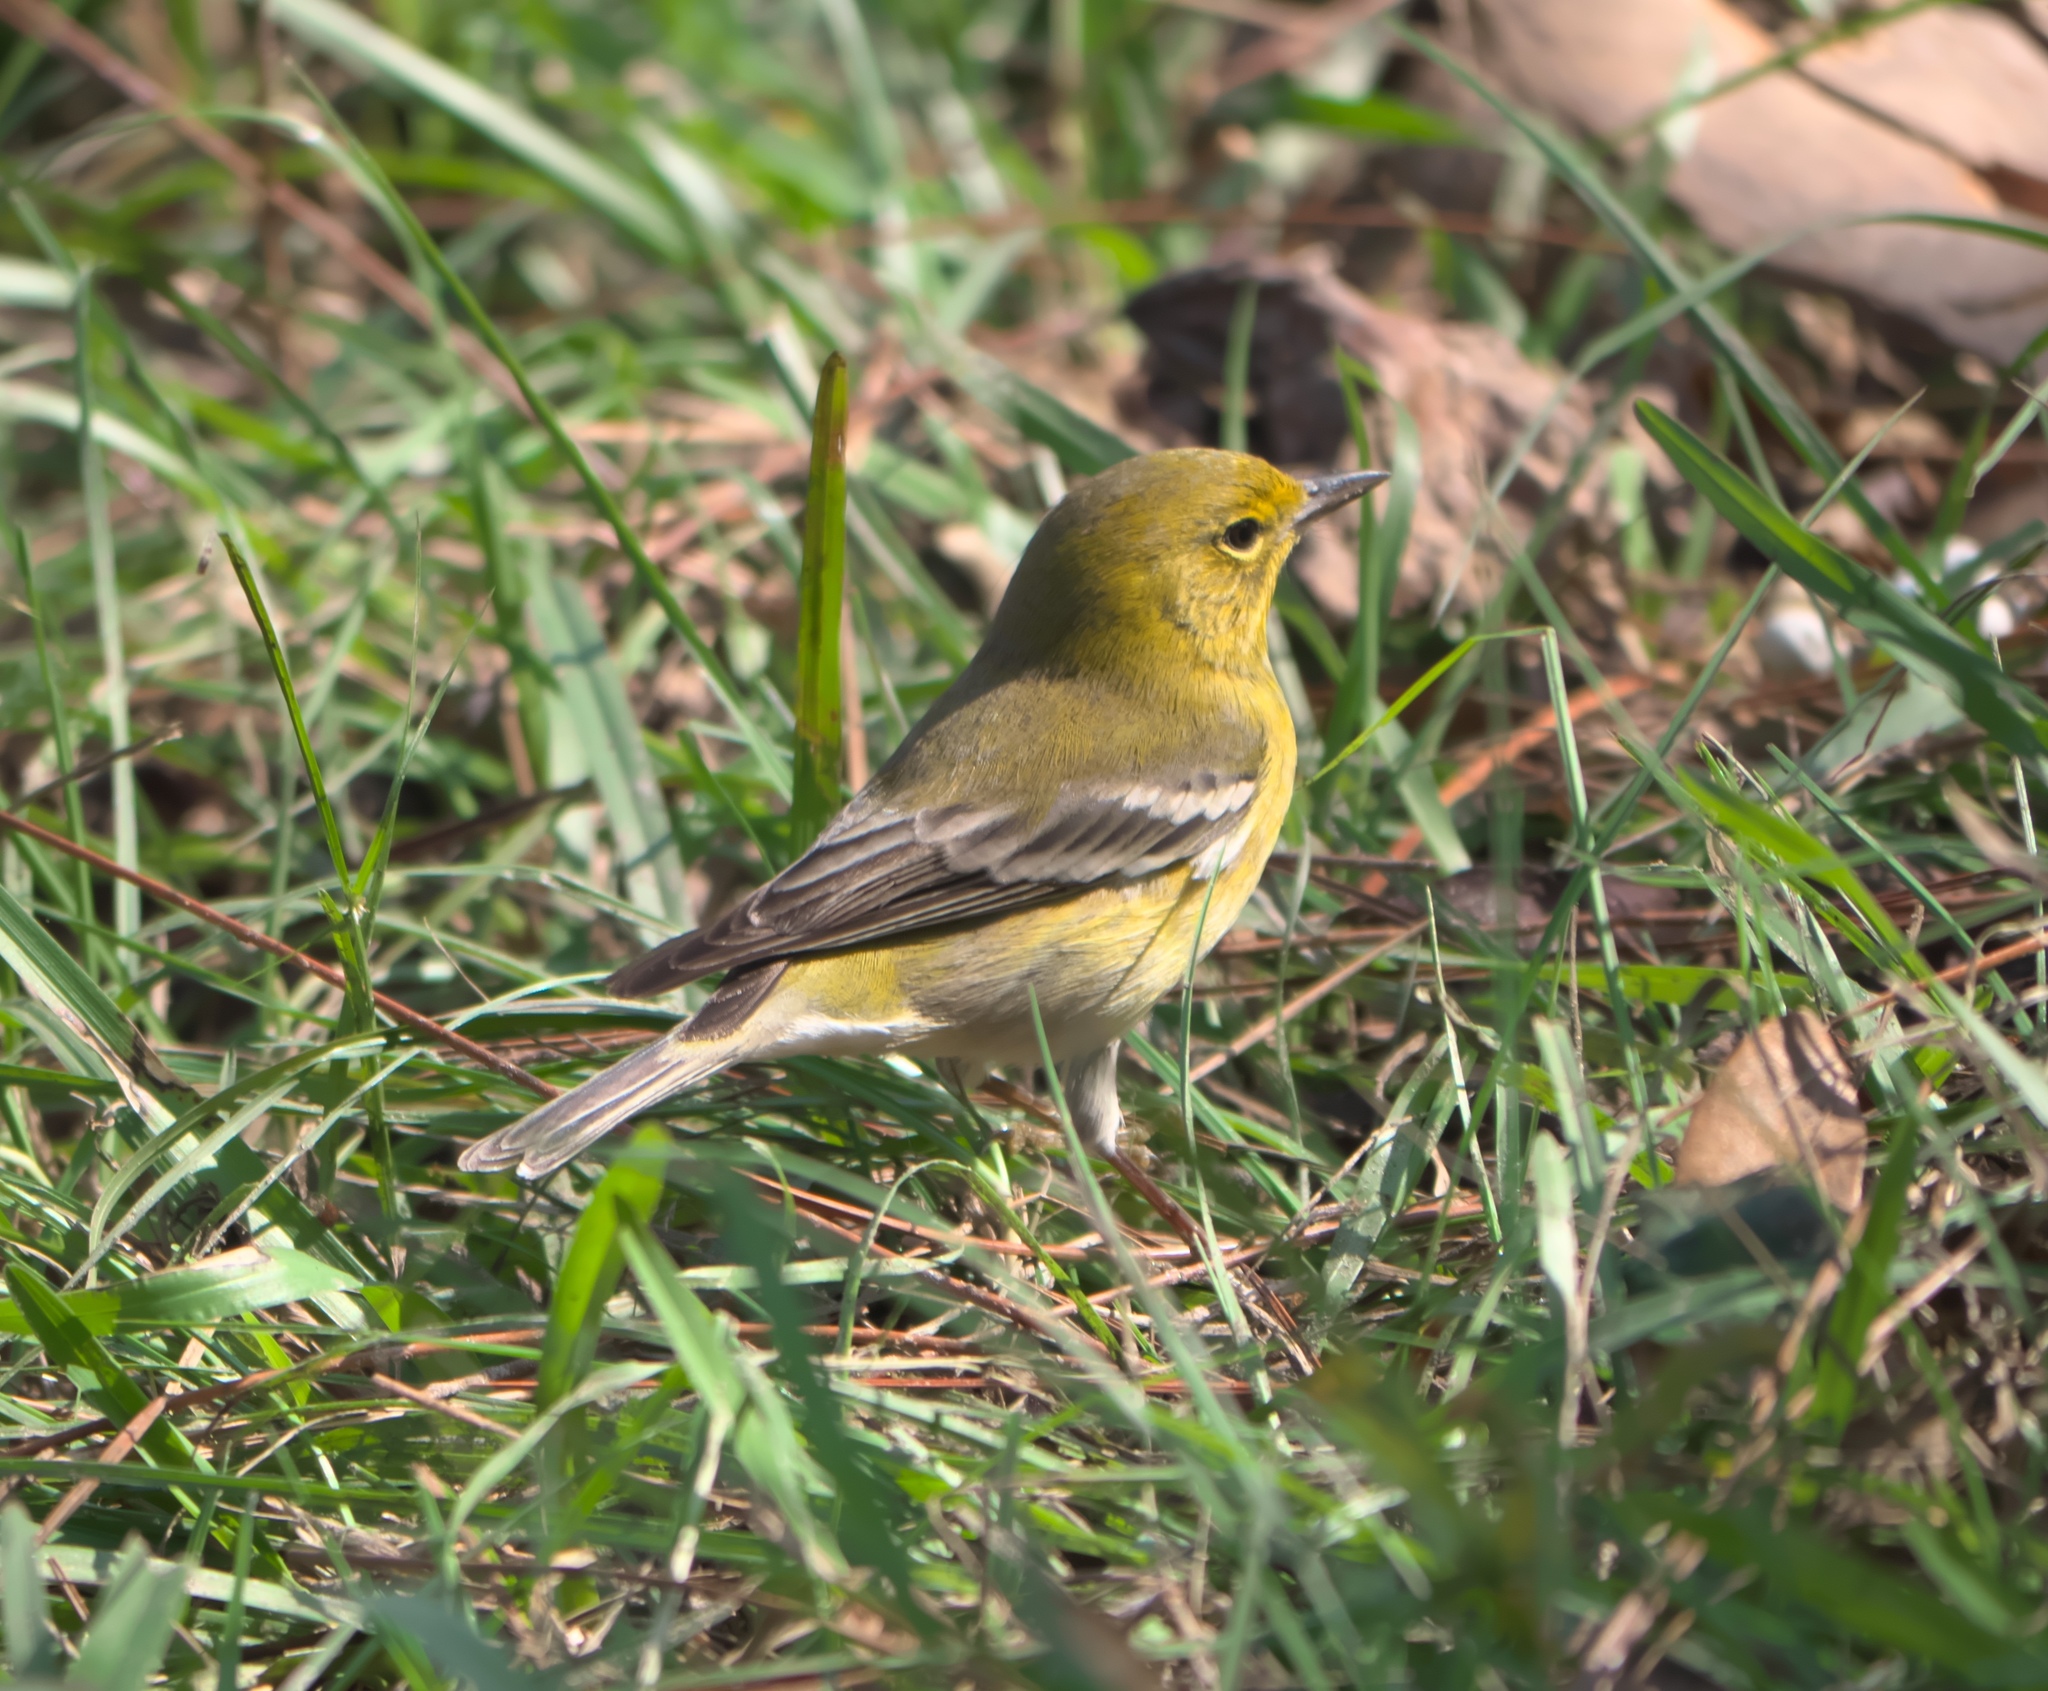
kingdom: Animalia
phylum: Chordata
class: Aves
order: Passeriformes
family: Parulidae
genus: Setophaga
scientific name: Setophaga pinus
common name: Pine warbler
